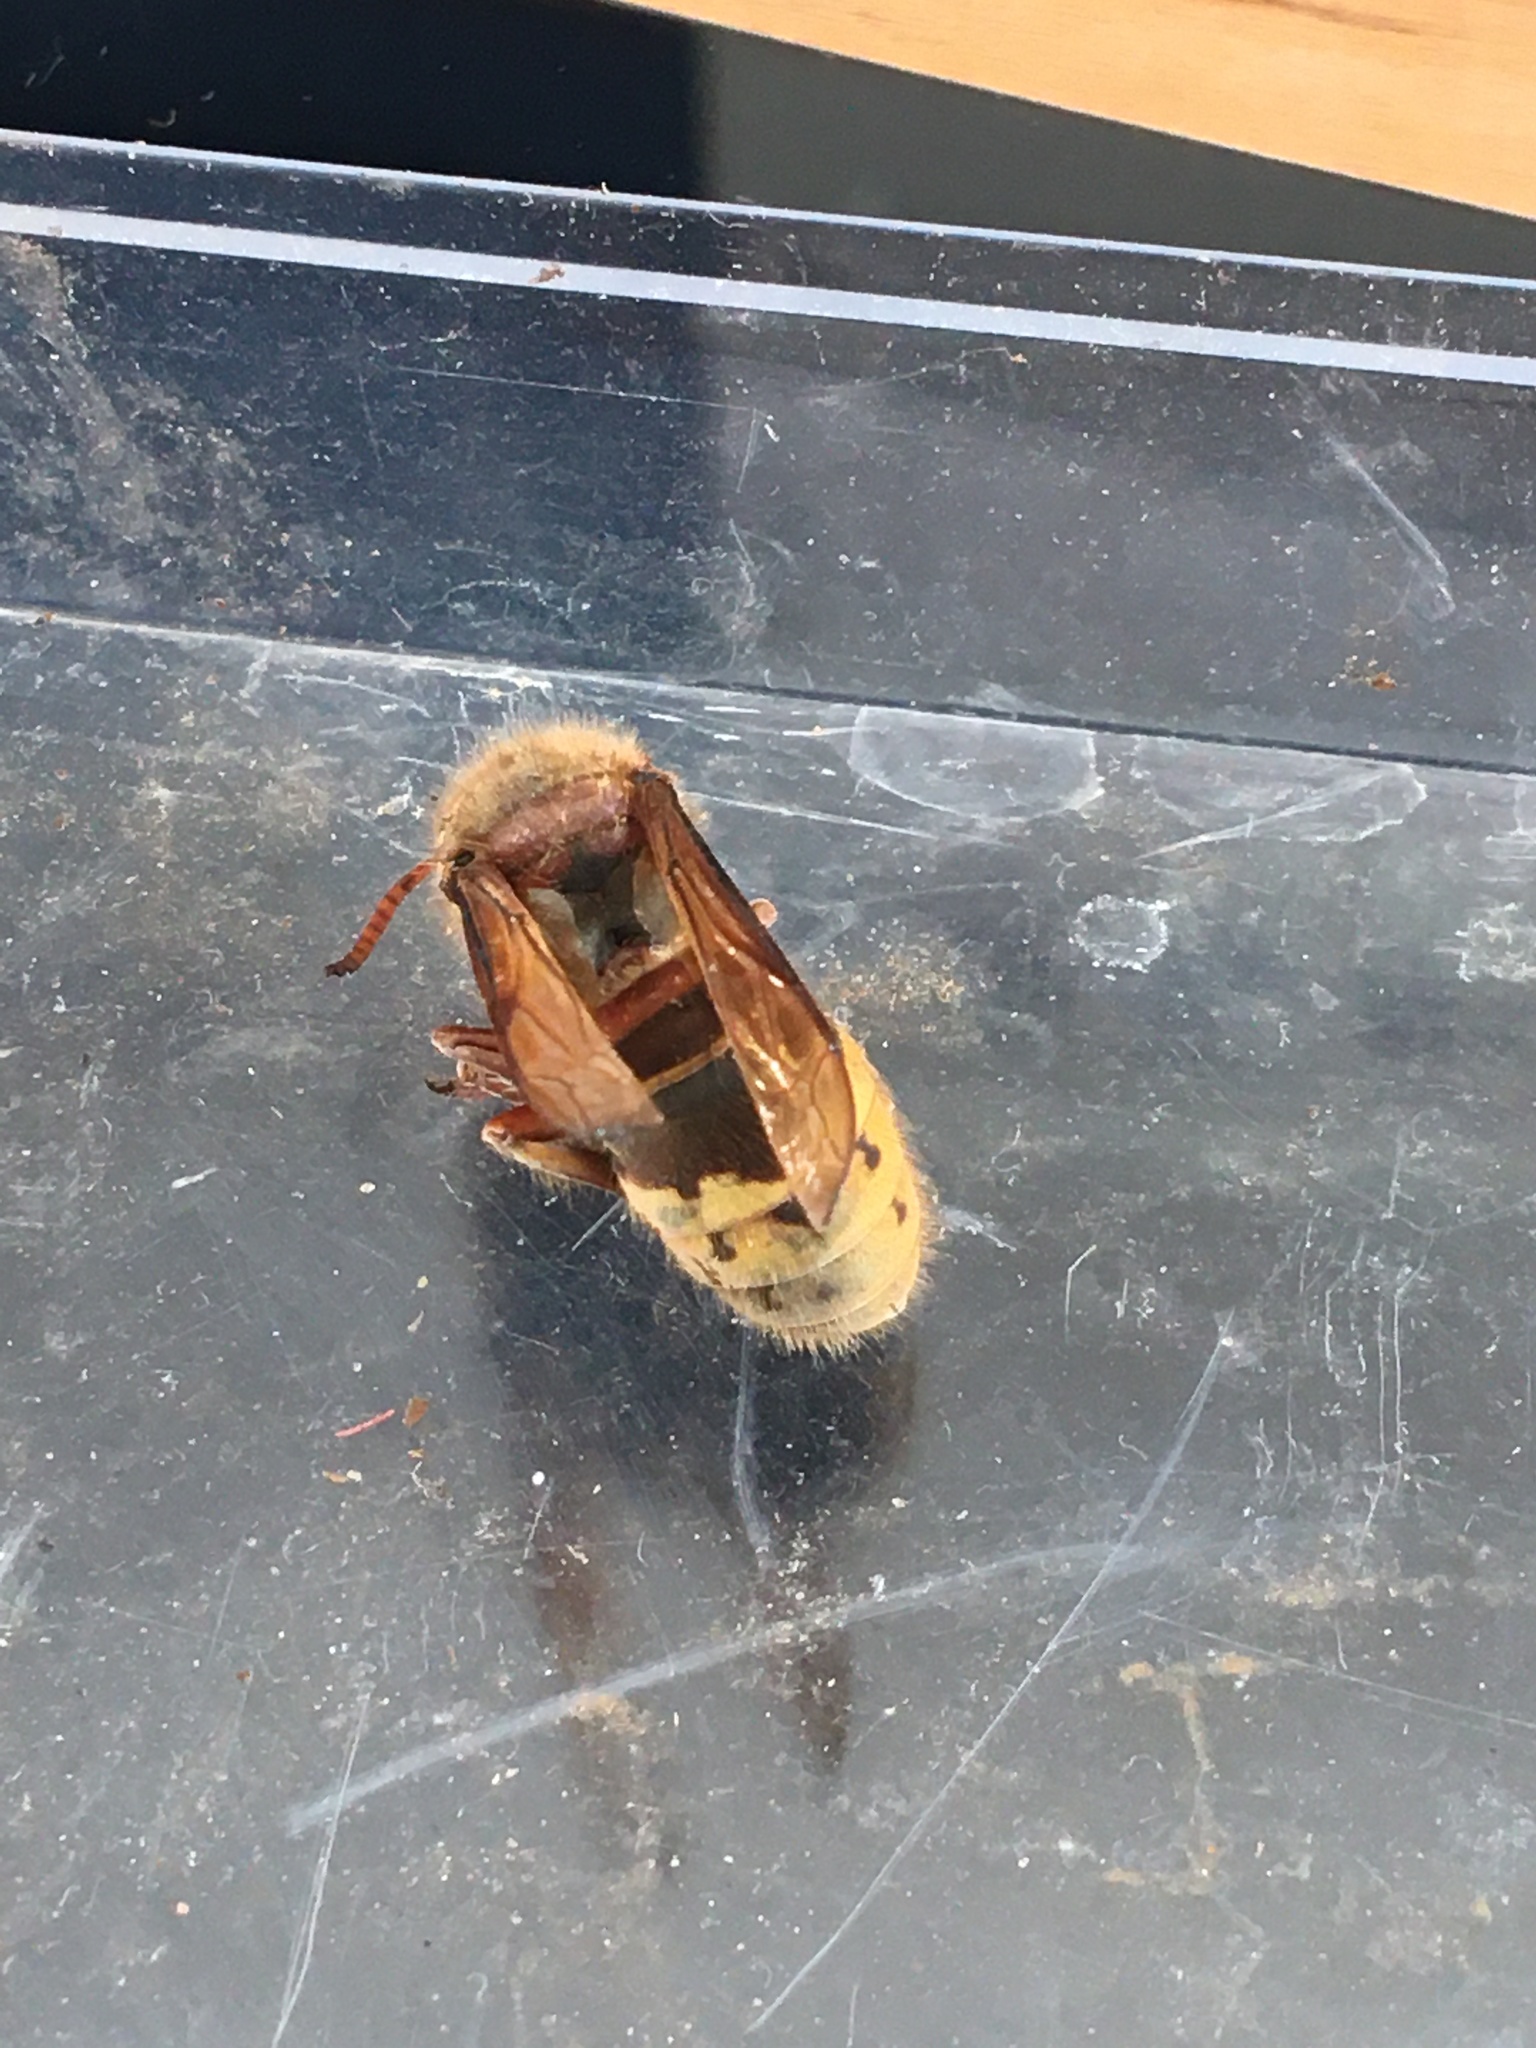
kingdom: Animalia
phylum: Arthropoda
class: Insecta
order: Hymenoptera
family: Vespidae
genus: Vespa
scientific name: Vespa crabro
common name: Hornet
